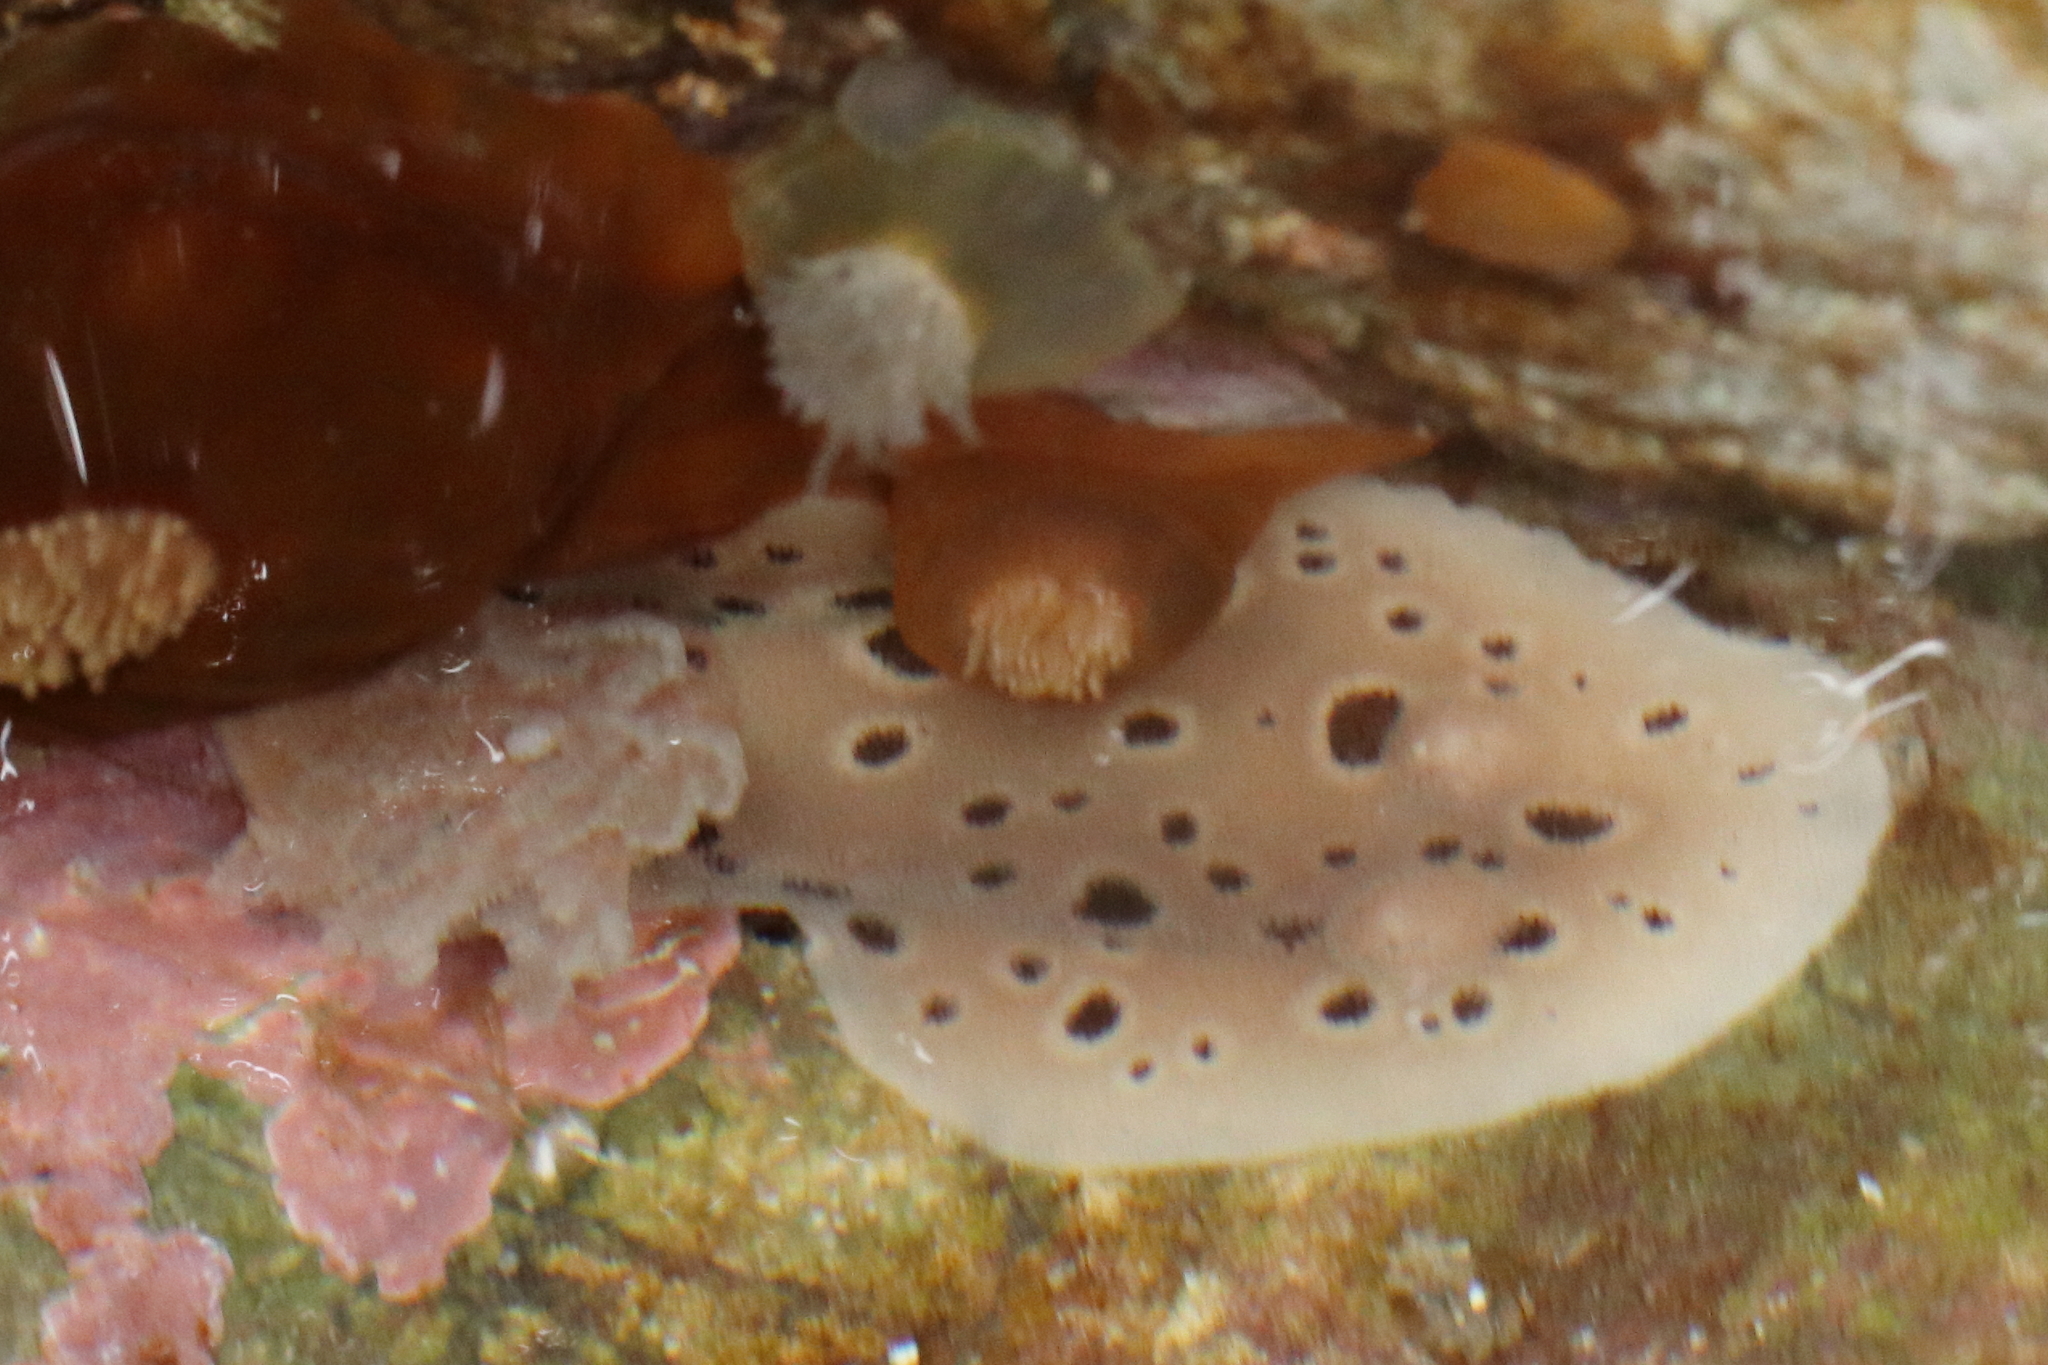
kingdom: Animalia
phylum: Mollusca
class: Gastropoda
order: Nudibranchia
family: Discodorididae
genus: Diaulula
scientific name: Diaulula odonoghuei
